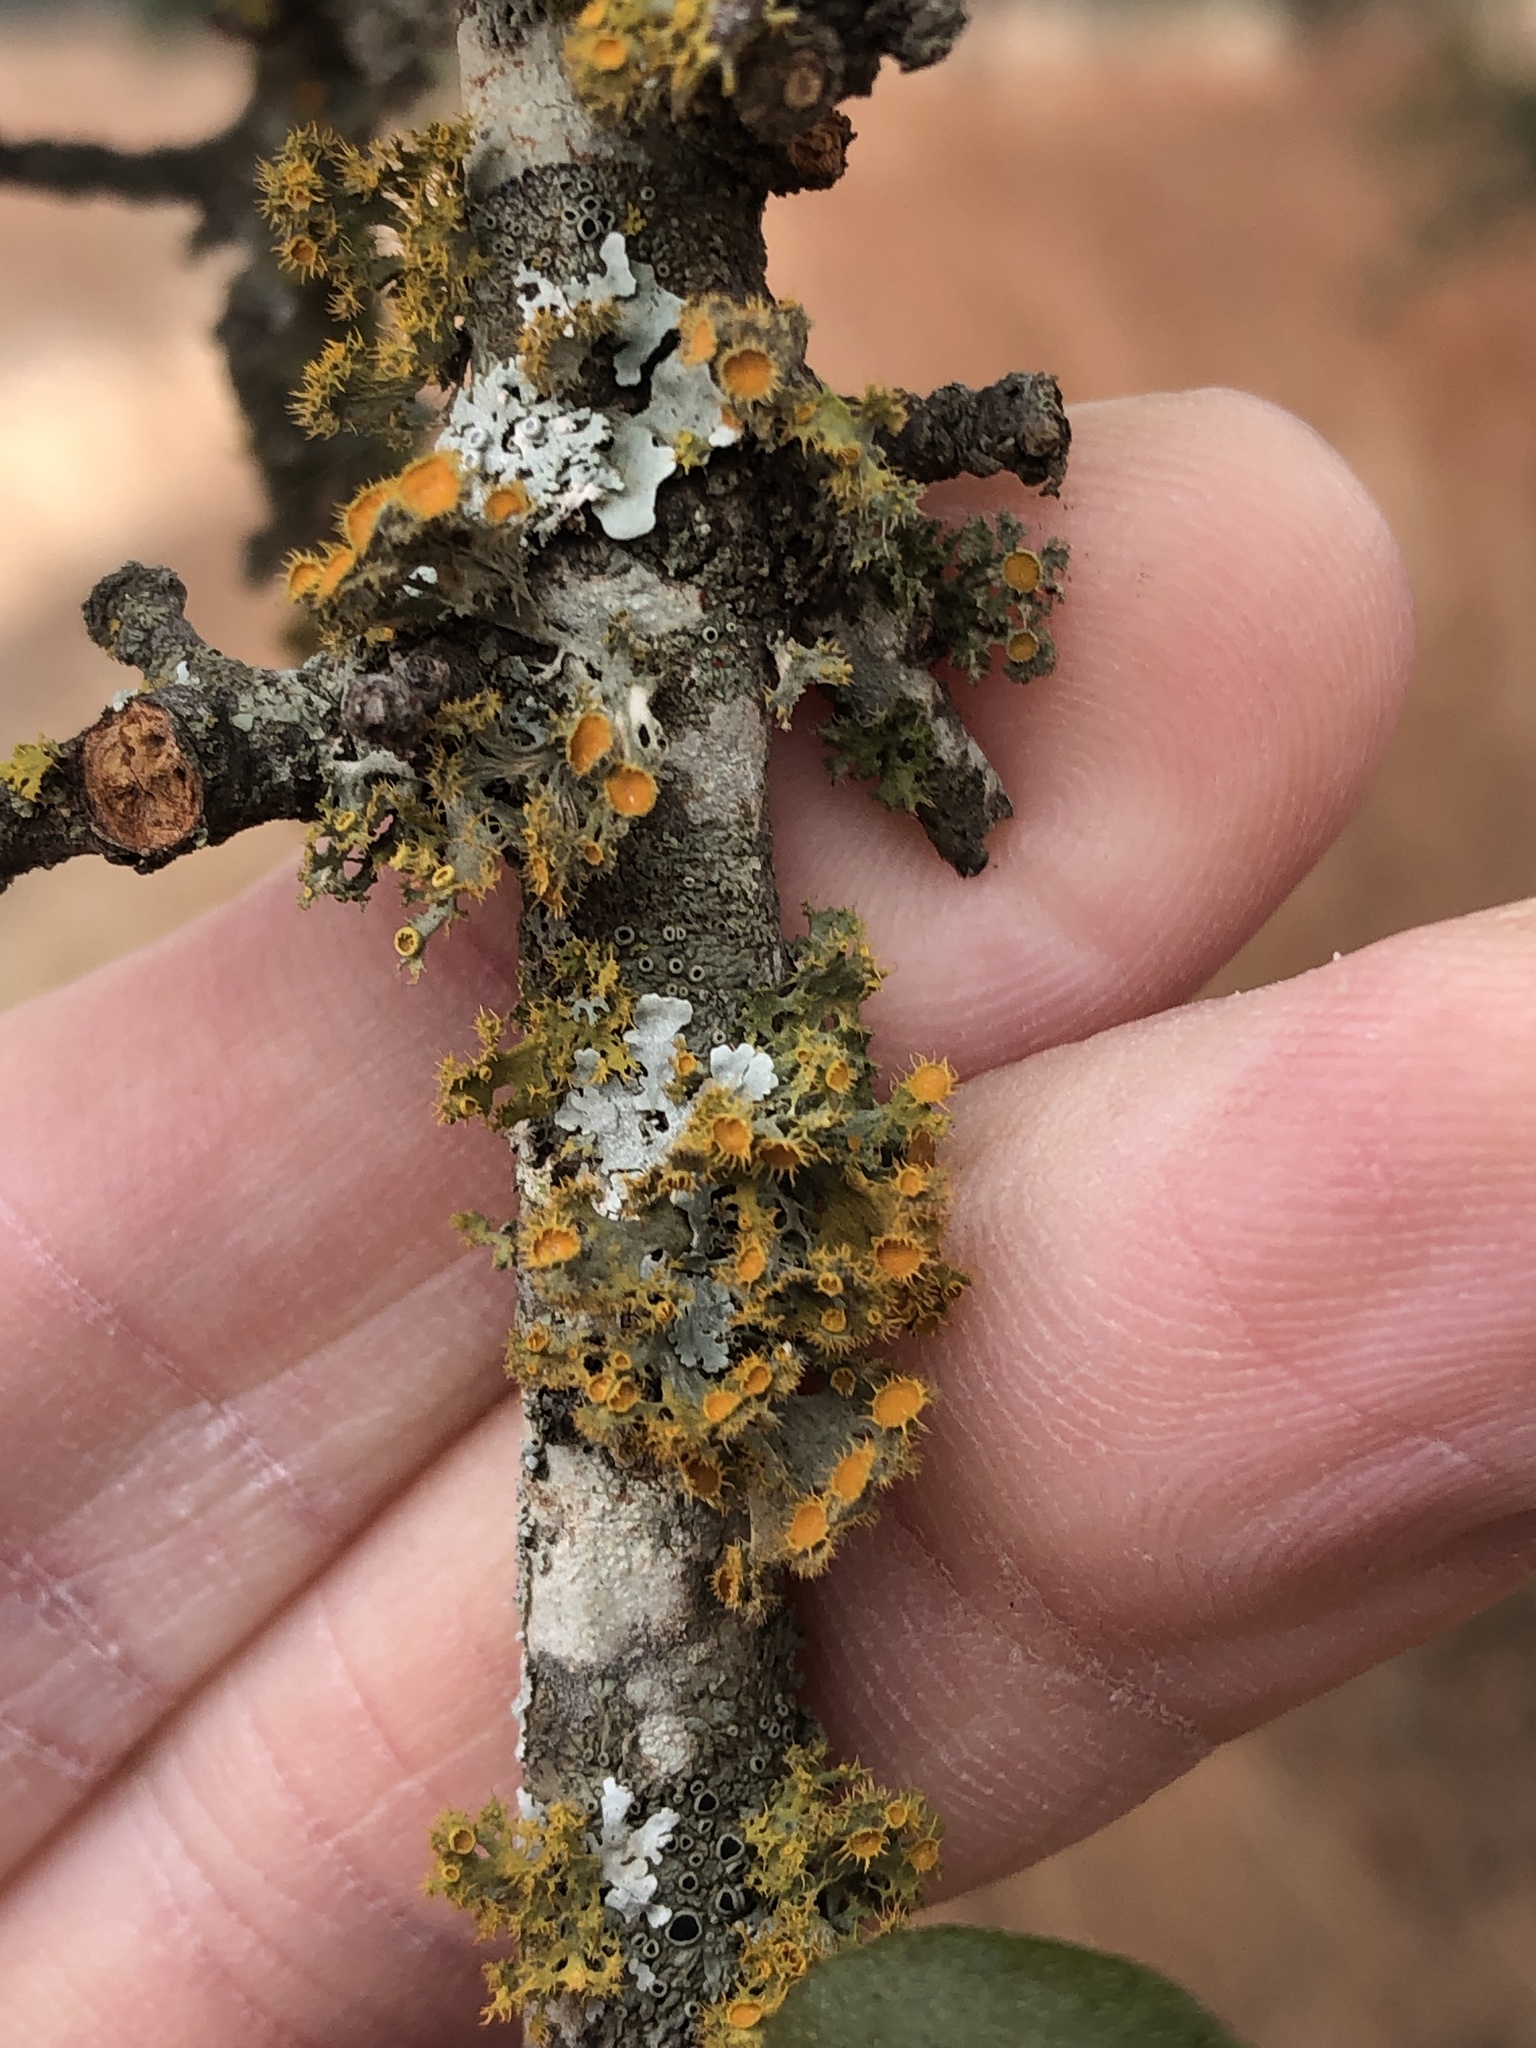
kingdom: Fungi
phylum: Ascomycota
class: Lecanoromycetes
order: Teloschistales
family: Teloschistaceae
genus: Niorma
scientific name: Niorma chrysophthalma
